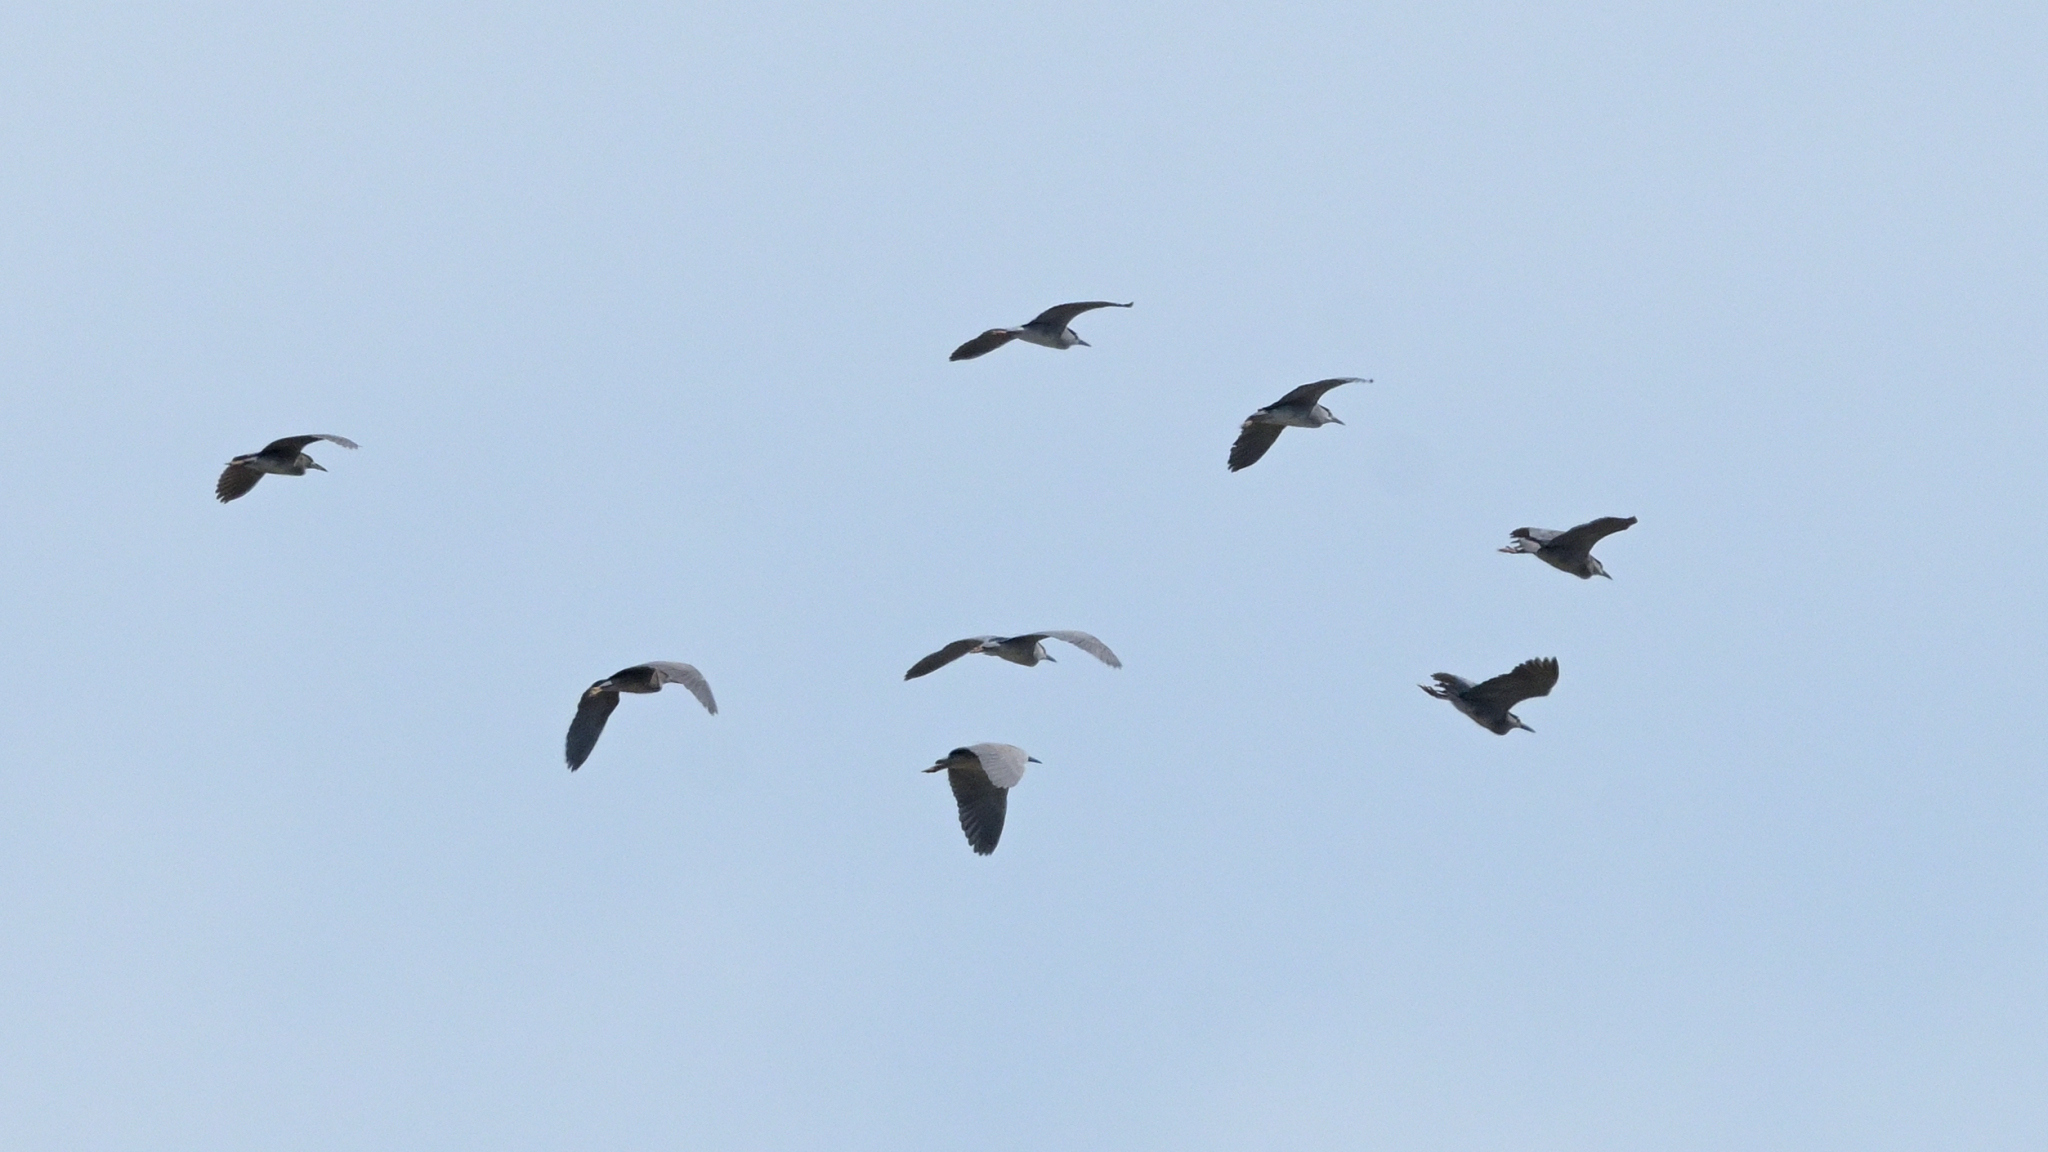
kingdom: Animalia
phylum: Chordata
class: Aves
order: Pelecaniformes
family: Ardeidae
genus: Ardea
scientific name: Ardea cinerea
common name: Grey heron
